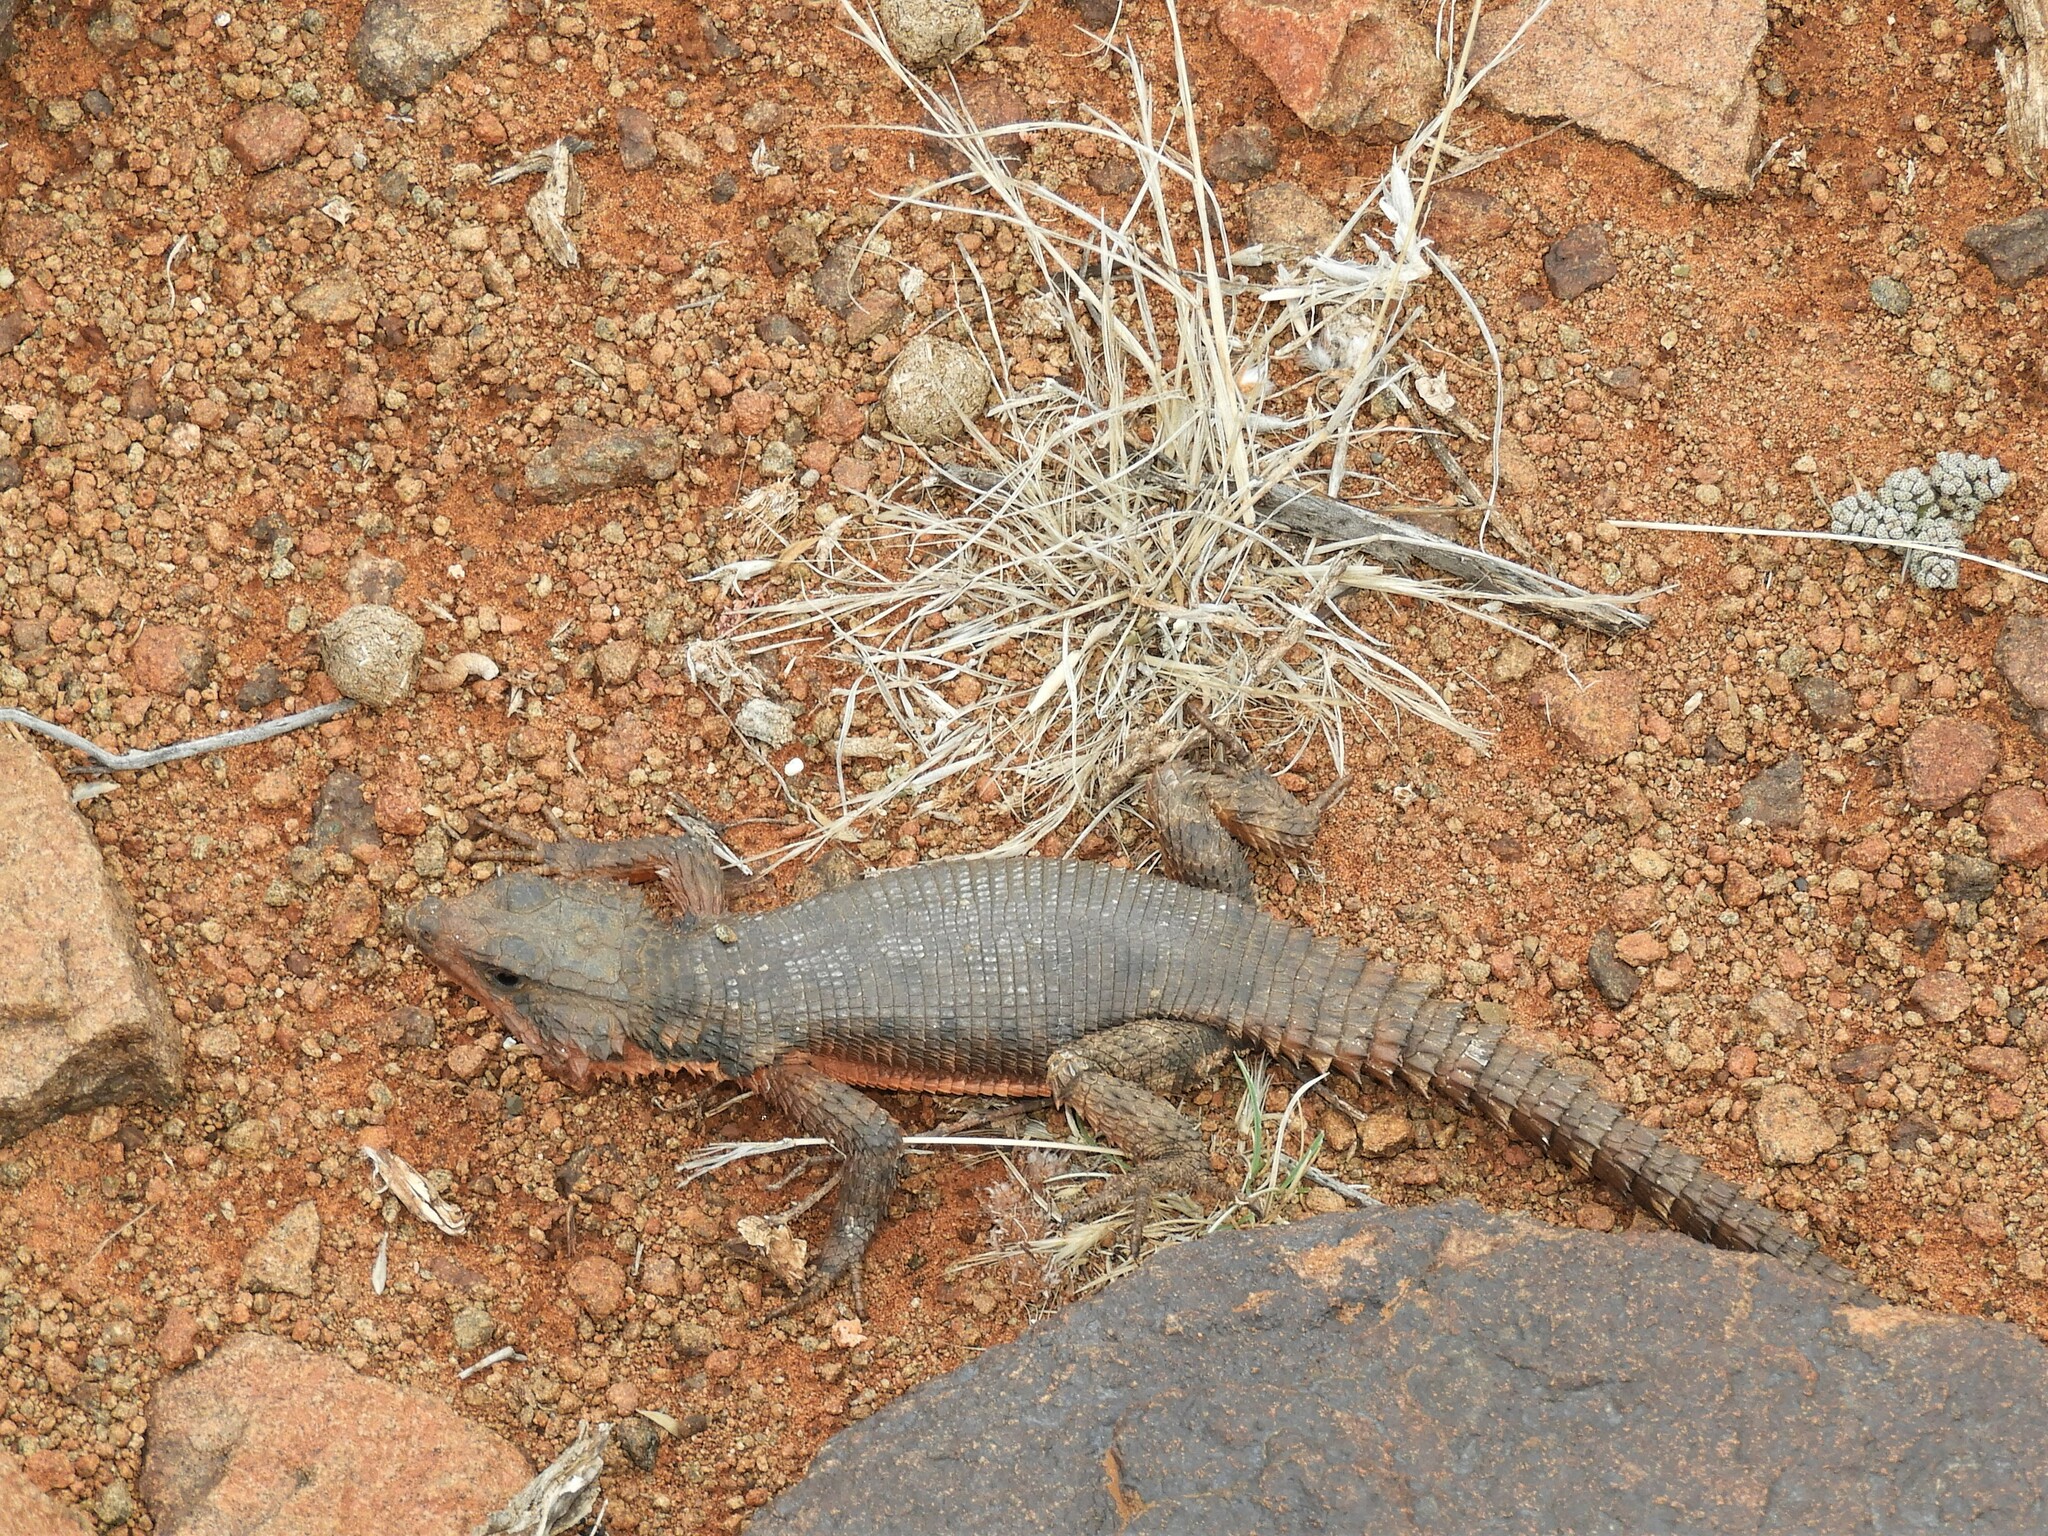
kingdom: Animalia
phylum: Chordata
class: Squamata
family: Cordylidae
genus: Karusasaurus
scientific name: Karusasaurus polyzonus
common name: Karoo girdled lizard
